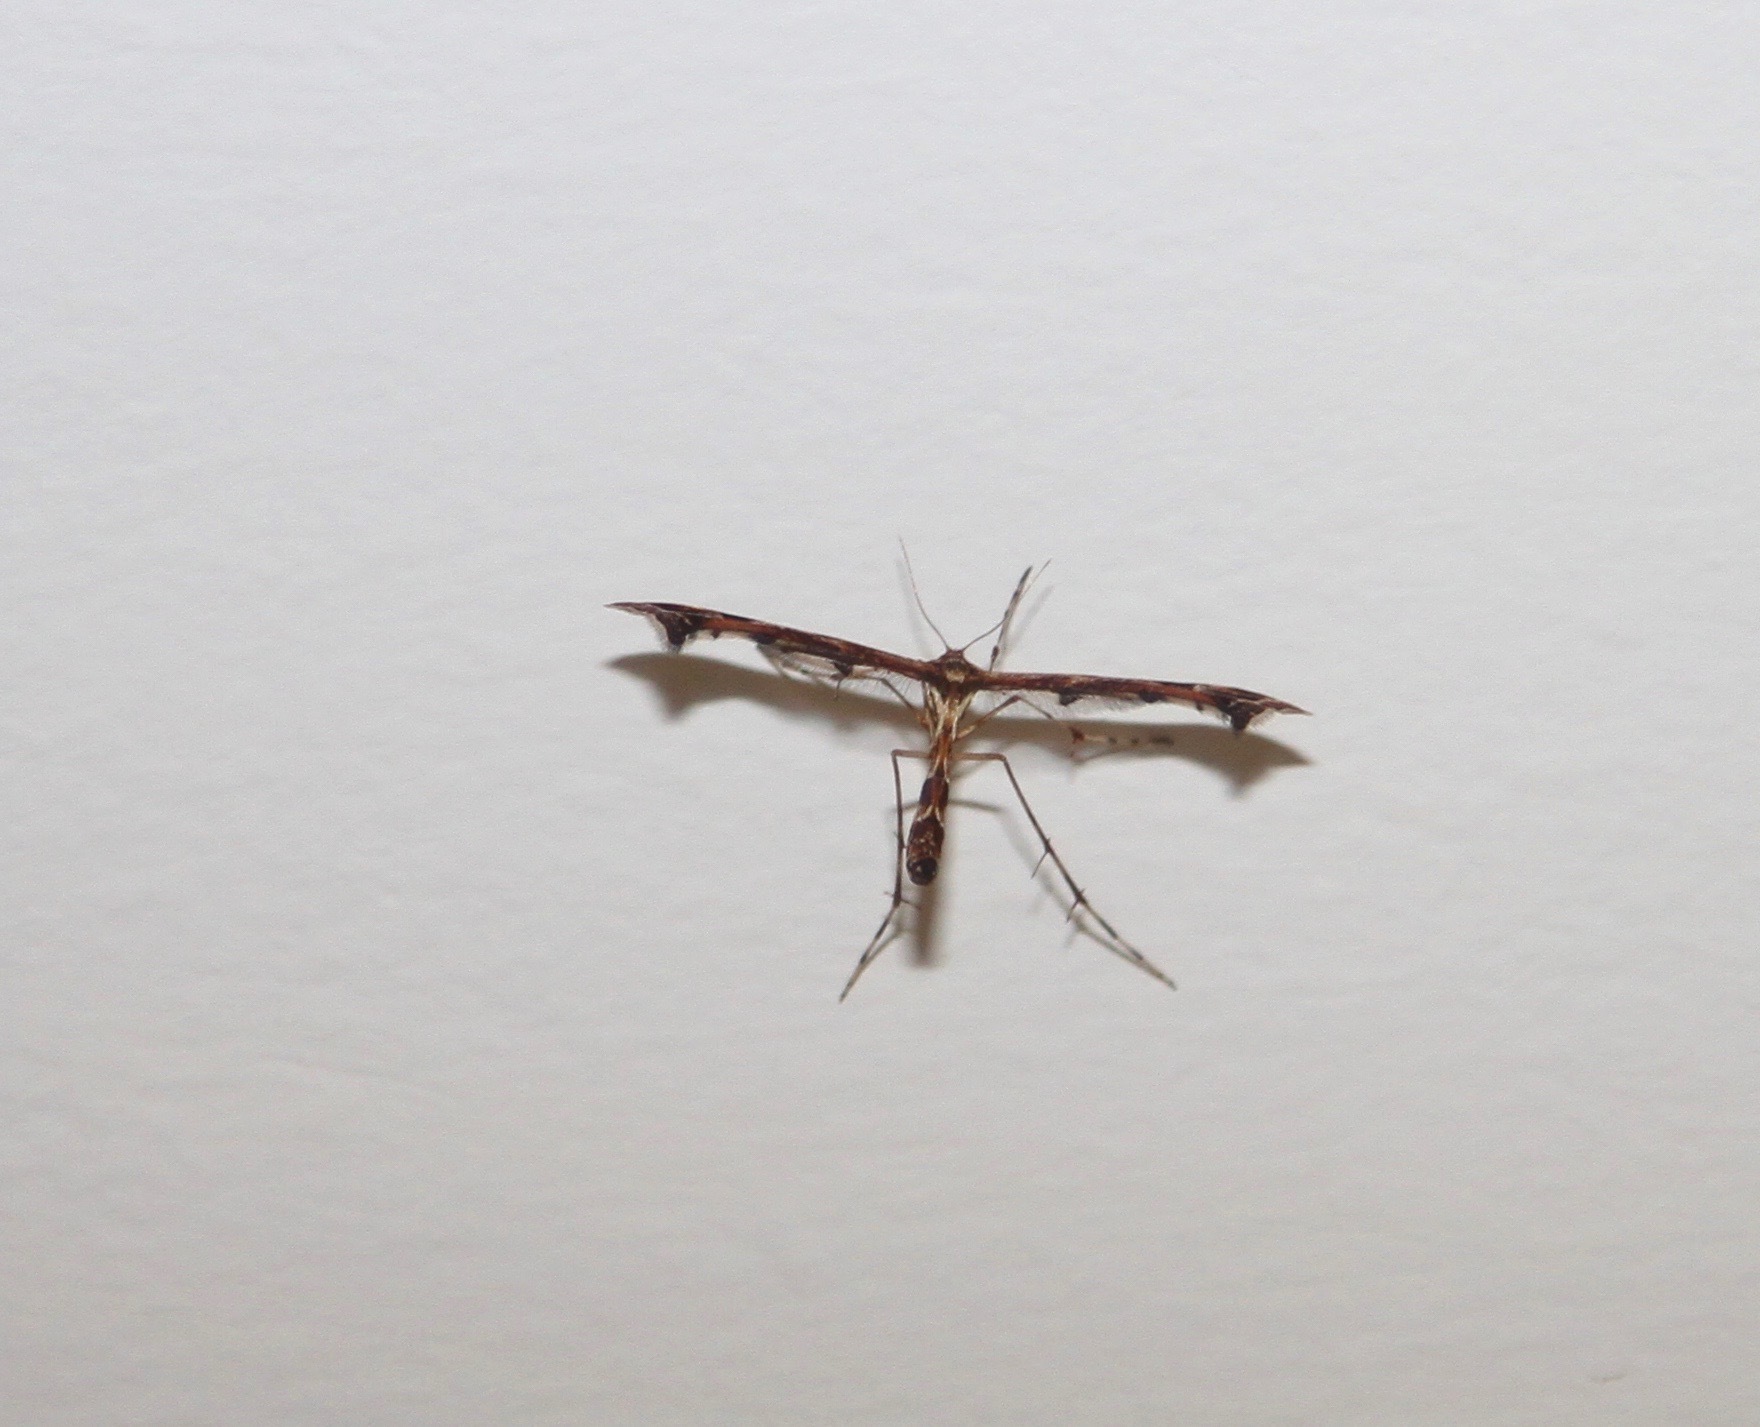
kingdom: Animalia
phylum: Arthropoda
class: Insecta
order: Lepidoptera
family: Pterophoridae
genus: Amblyptilia
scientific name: Amblyptilia acanthadactyla
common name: Beautiful plume
